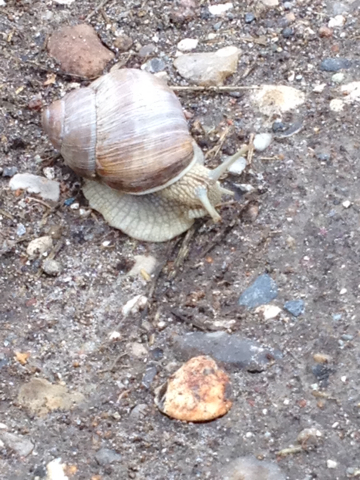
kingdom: Animalia
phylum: Mollusca
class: Gastropoda
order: Stylommatophora
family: Helicidae
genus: Helix
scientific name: Helix pomatia
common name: Roman snail
